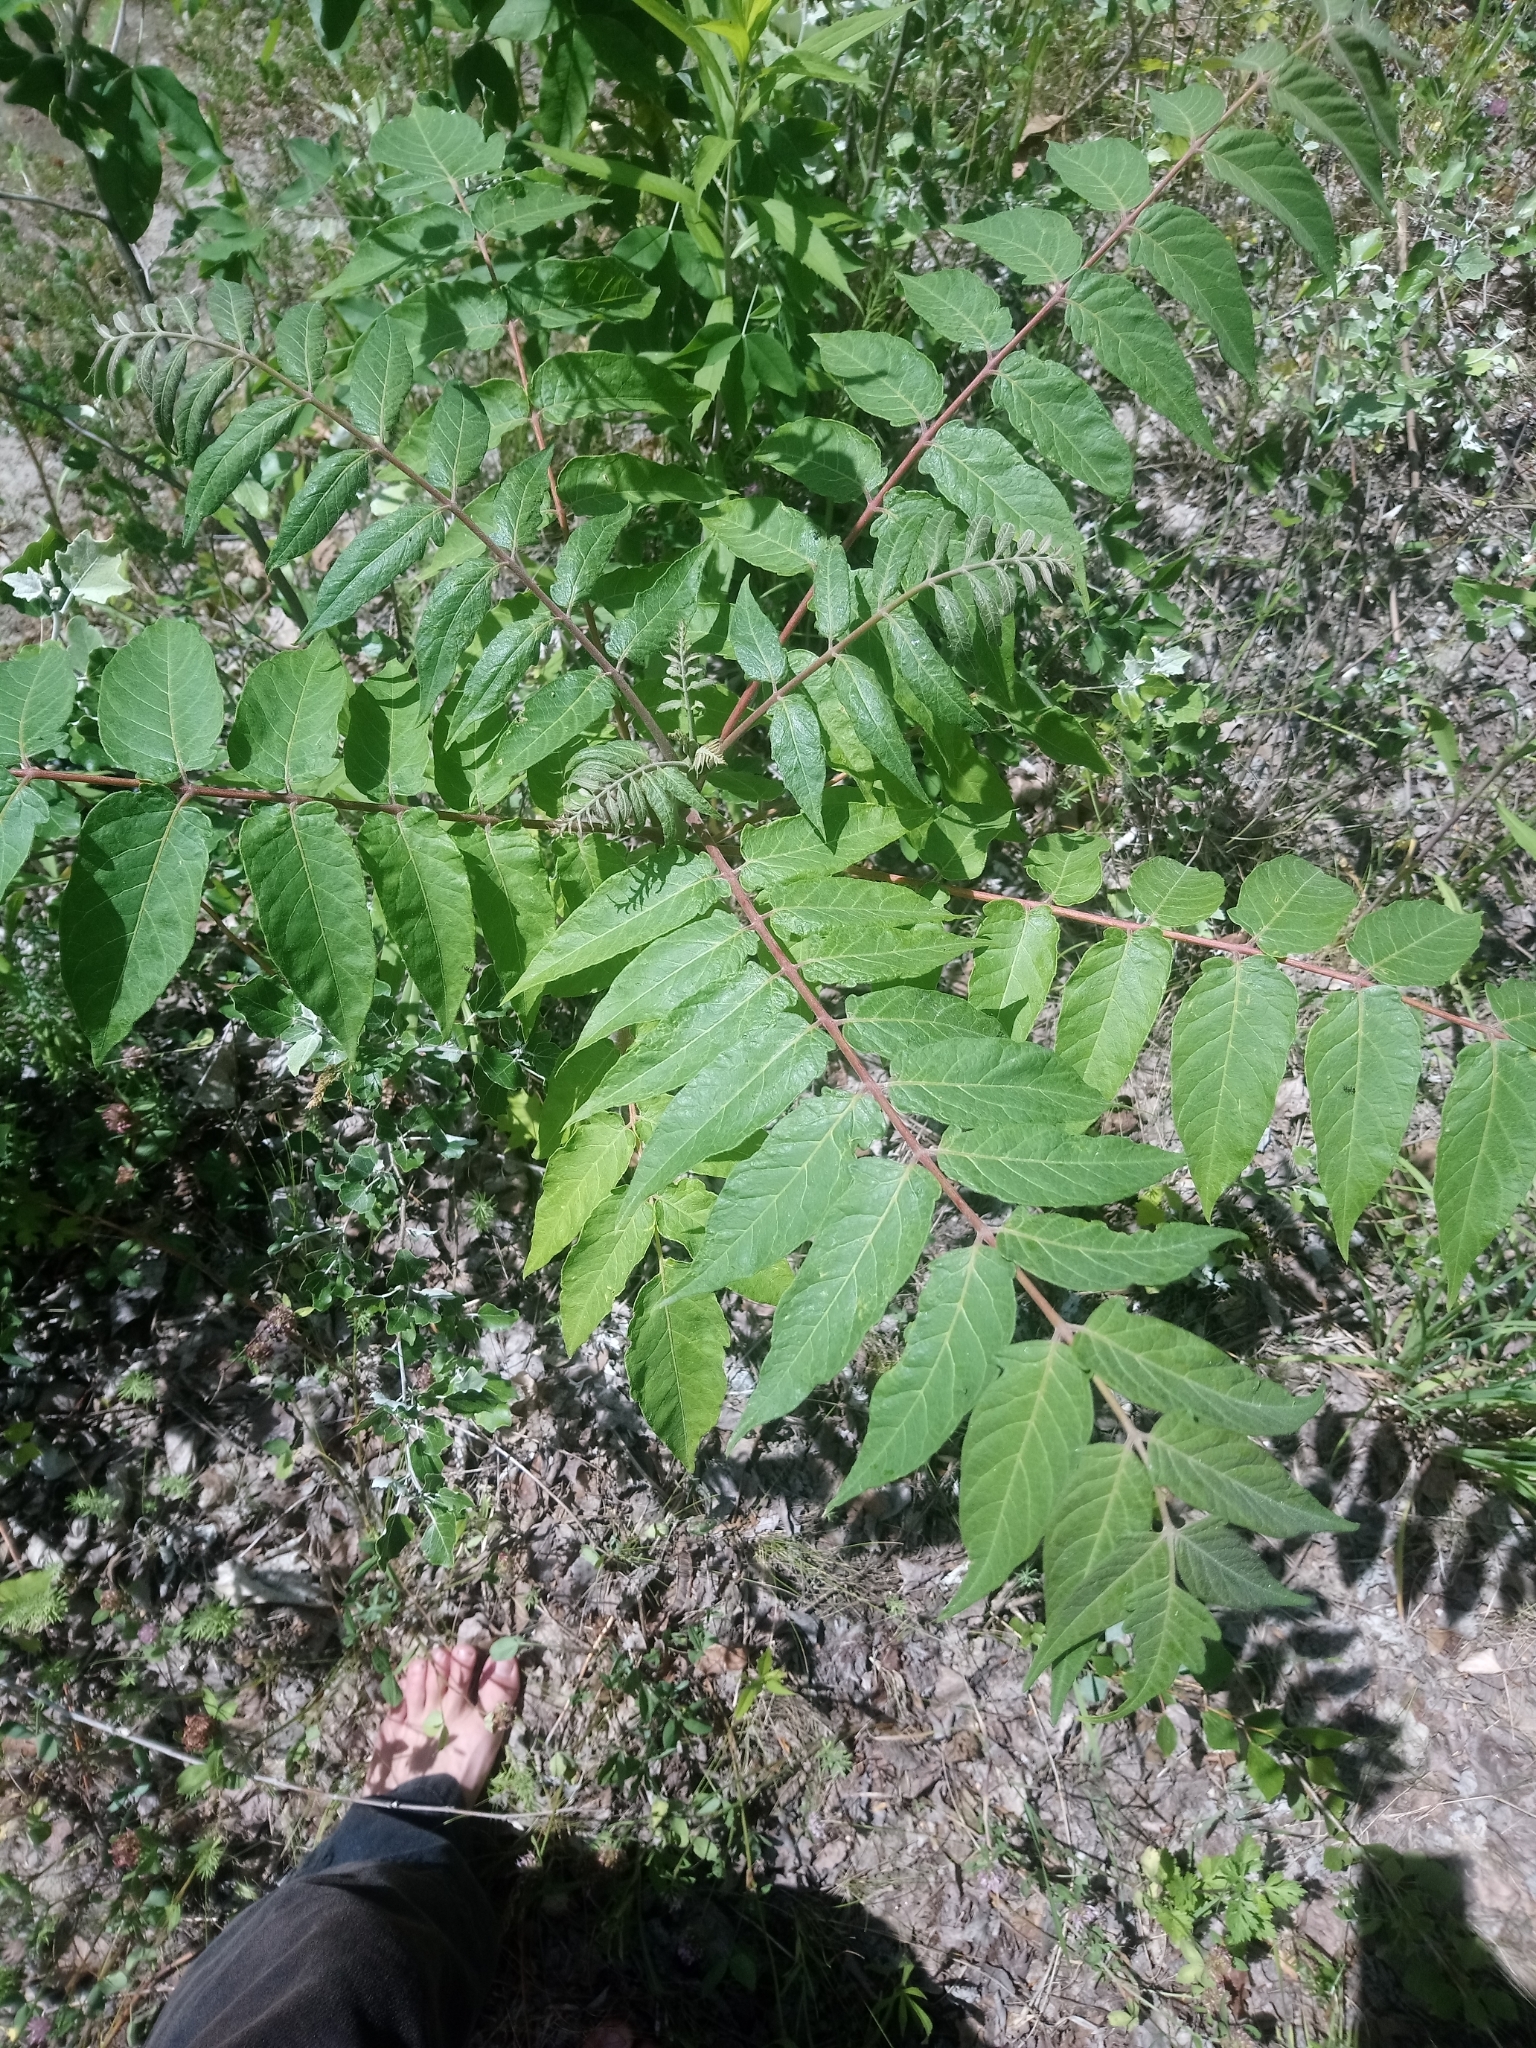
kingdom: Plantae
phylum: Tracheophyta
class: Magnoliopsida
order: Sapindales
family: Simaroubaceae
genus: Ailanthus
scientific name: Ailanthus altissima
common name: Tree-of-heaven
